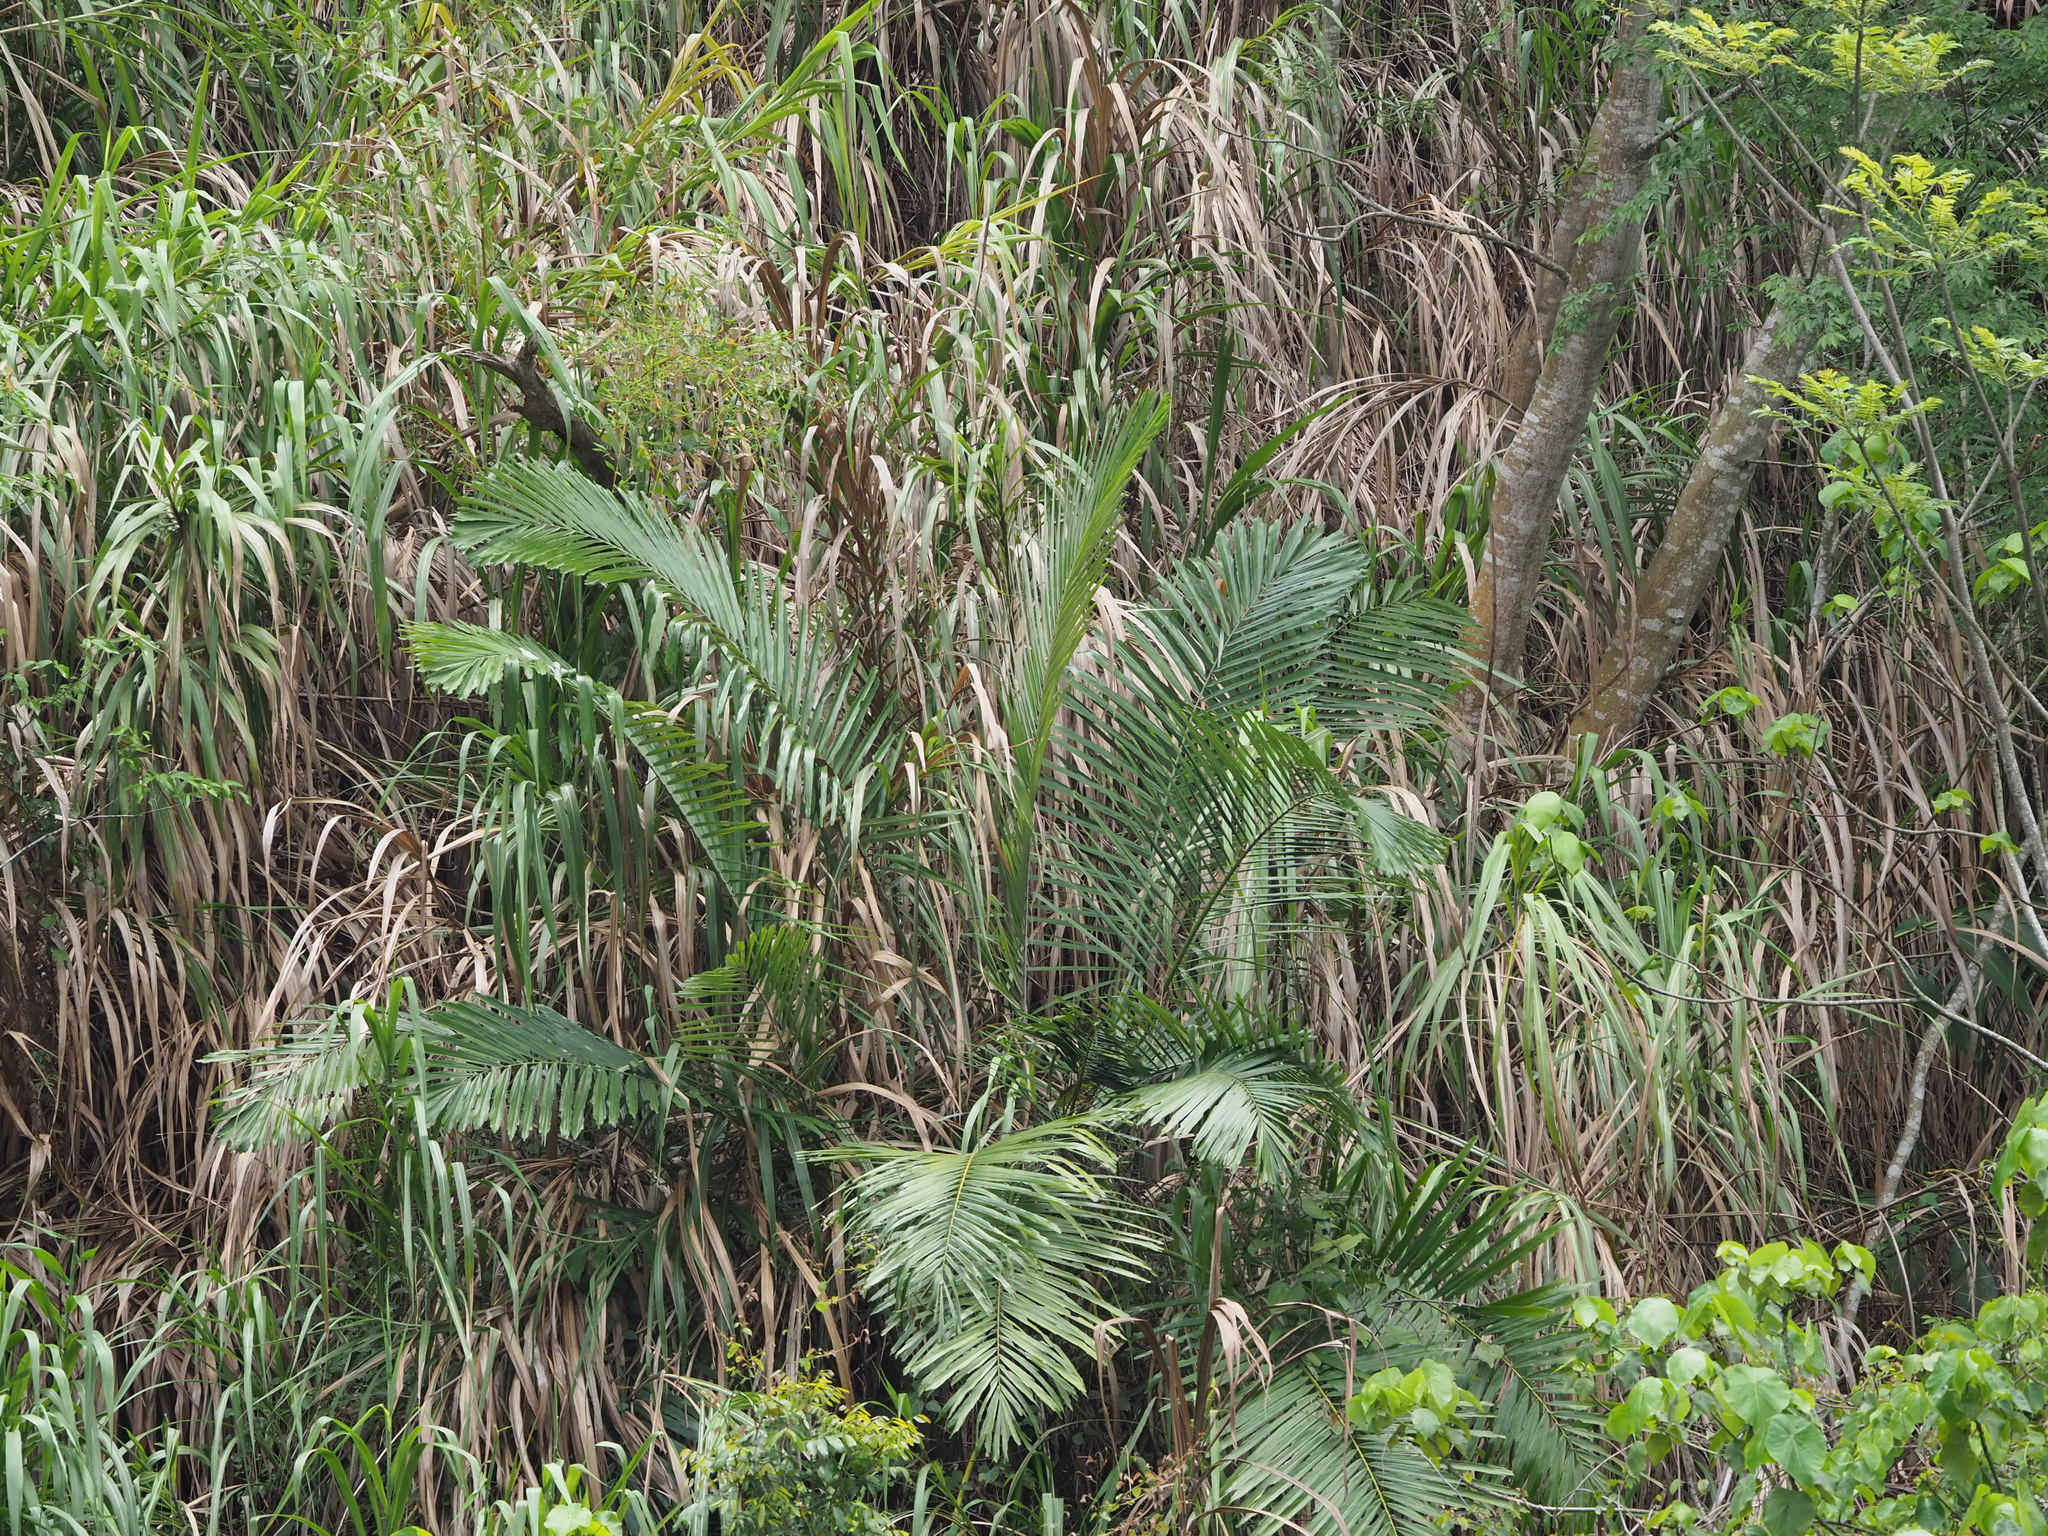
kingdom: Plantae
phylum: Tracheophyta
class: Liliopsida
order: Arecales
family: Arecaceae
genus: Arenga
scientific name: Arenga engleri
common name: Formosan sugar palm
